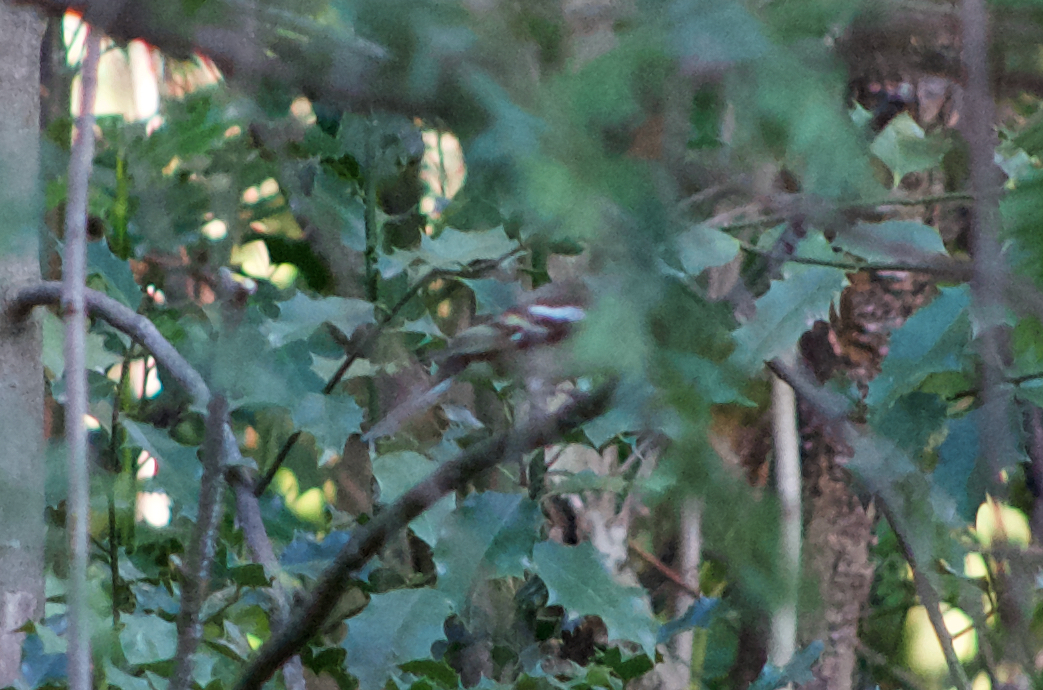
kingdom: Animalia
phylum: Chordata
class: Aves
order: Passeriformes
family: Fringillidae
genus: Fringilla
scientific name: Fringilla coelebs
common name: Common chaffinch
